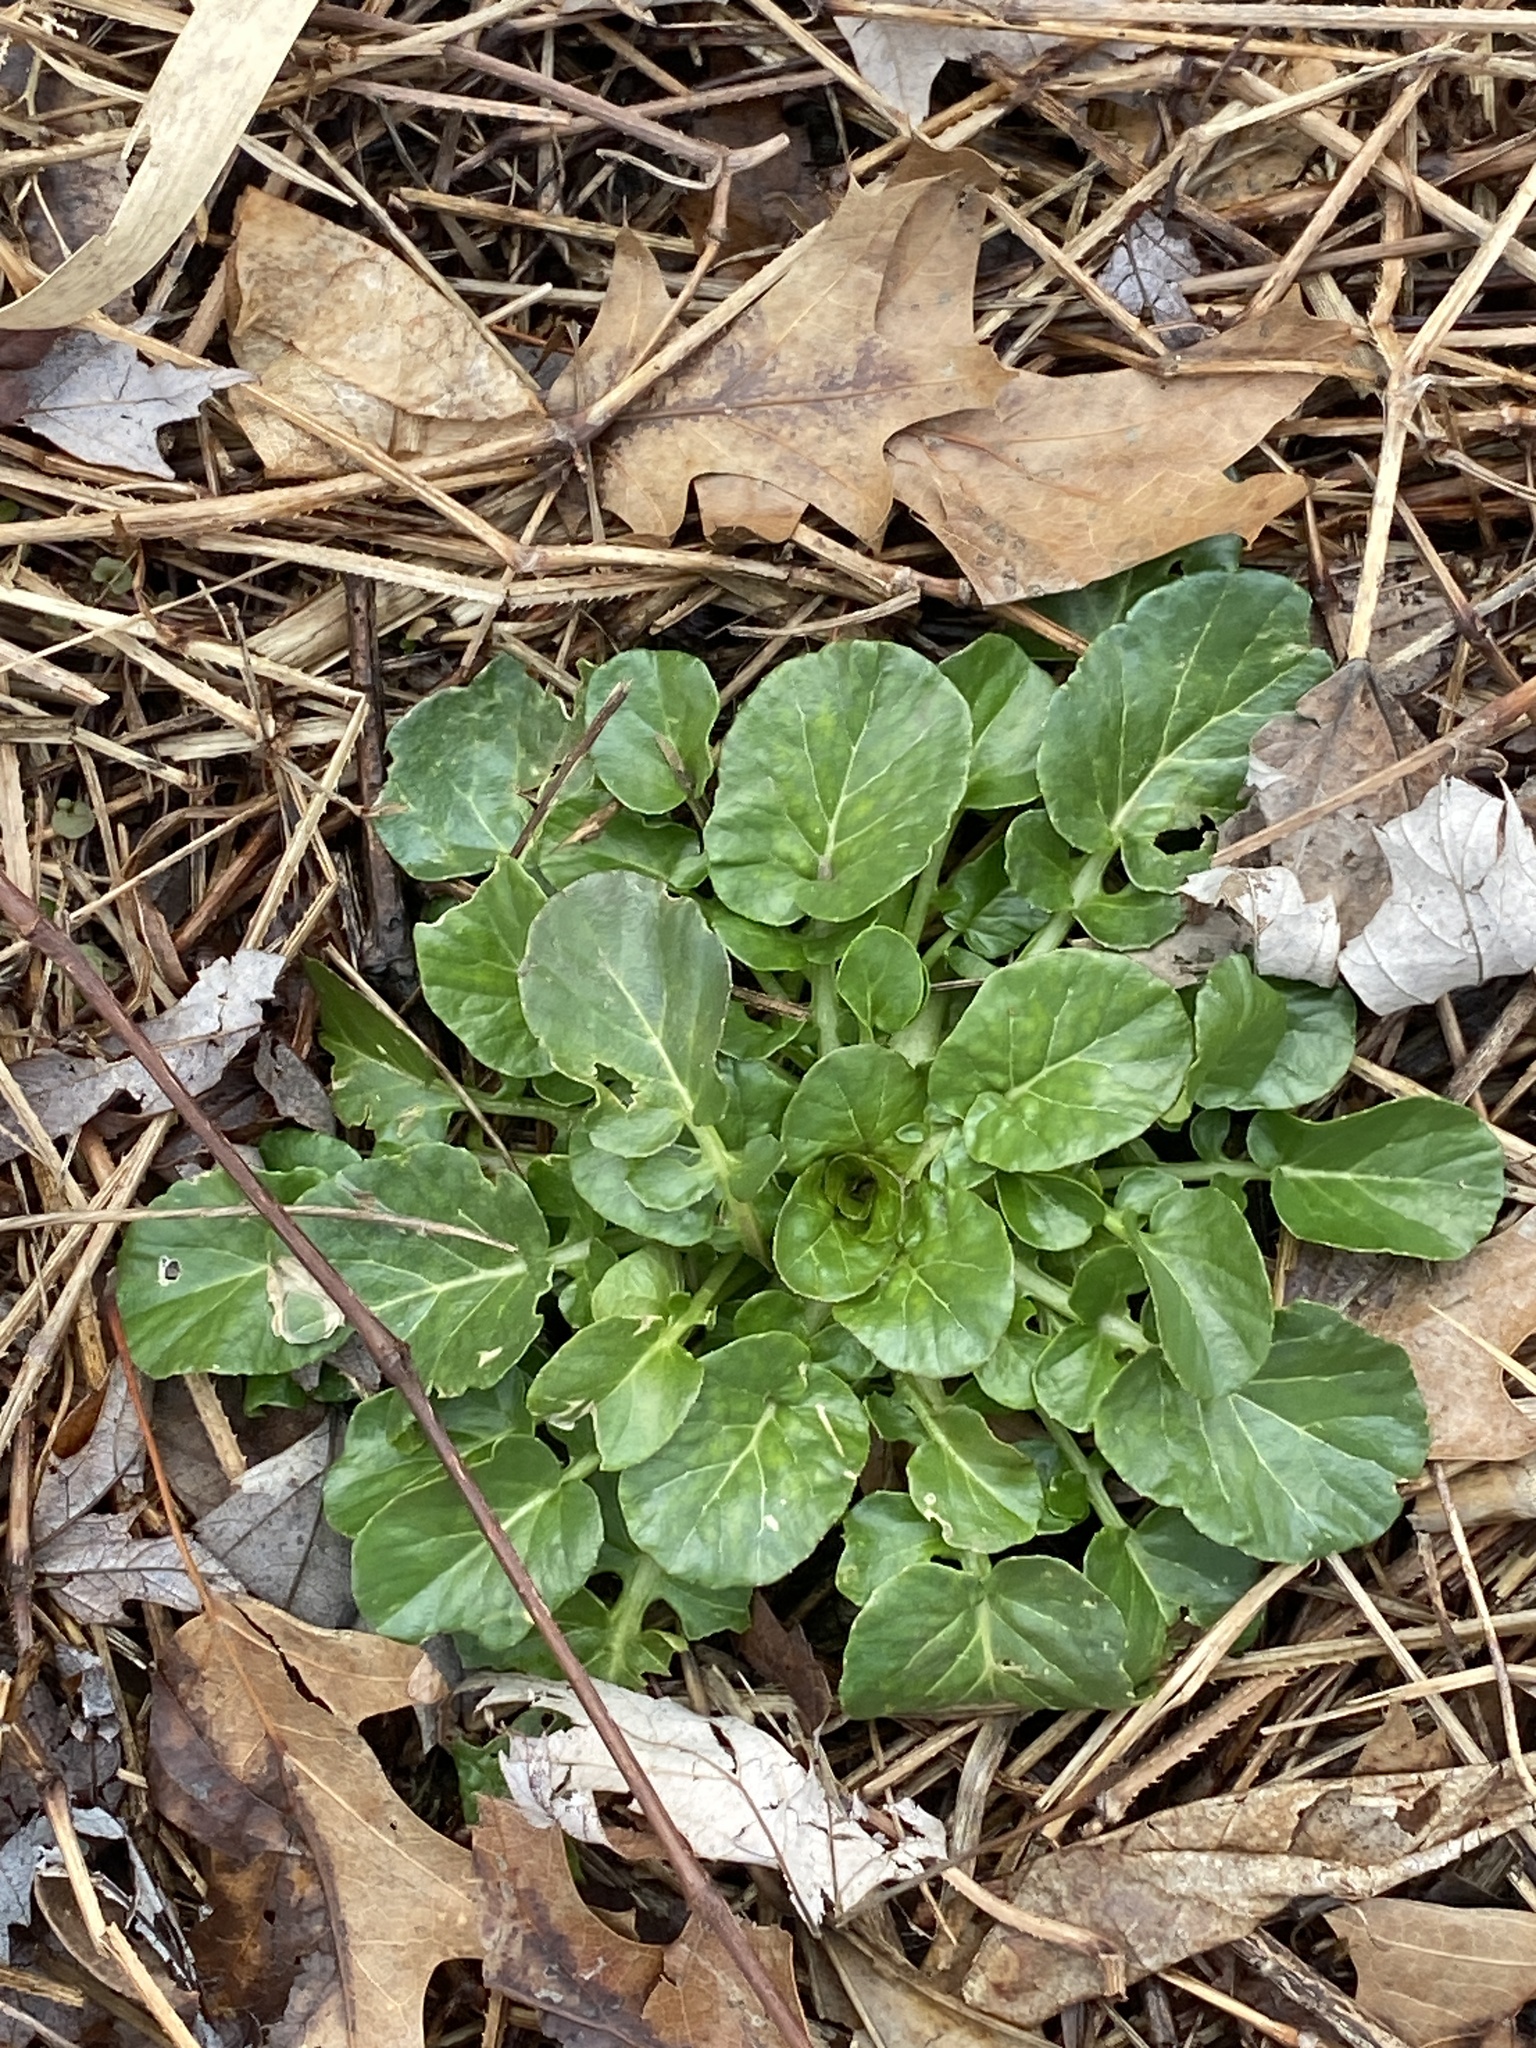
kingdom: Plantae
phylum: Tracheophyta
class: Magnoliopsida
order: Brassicales
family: Brassicaceae
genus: Barbarea
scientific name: Barbarea vulgaris
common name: Cressy-greens
